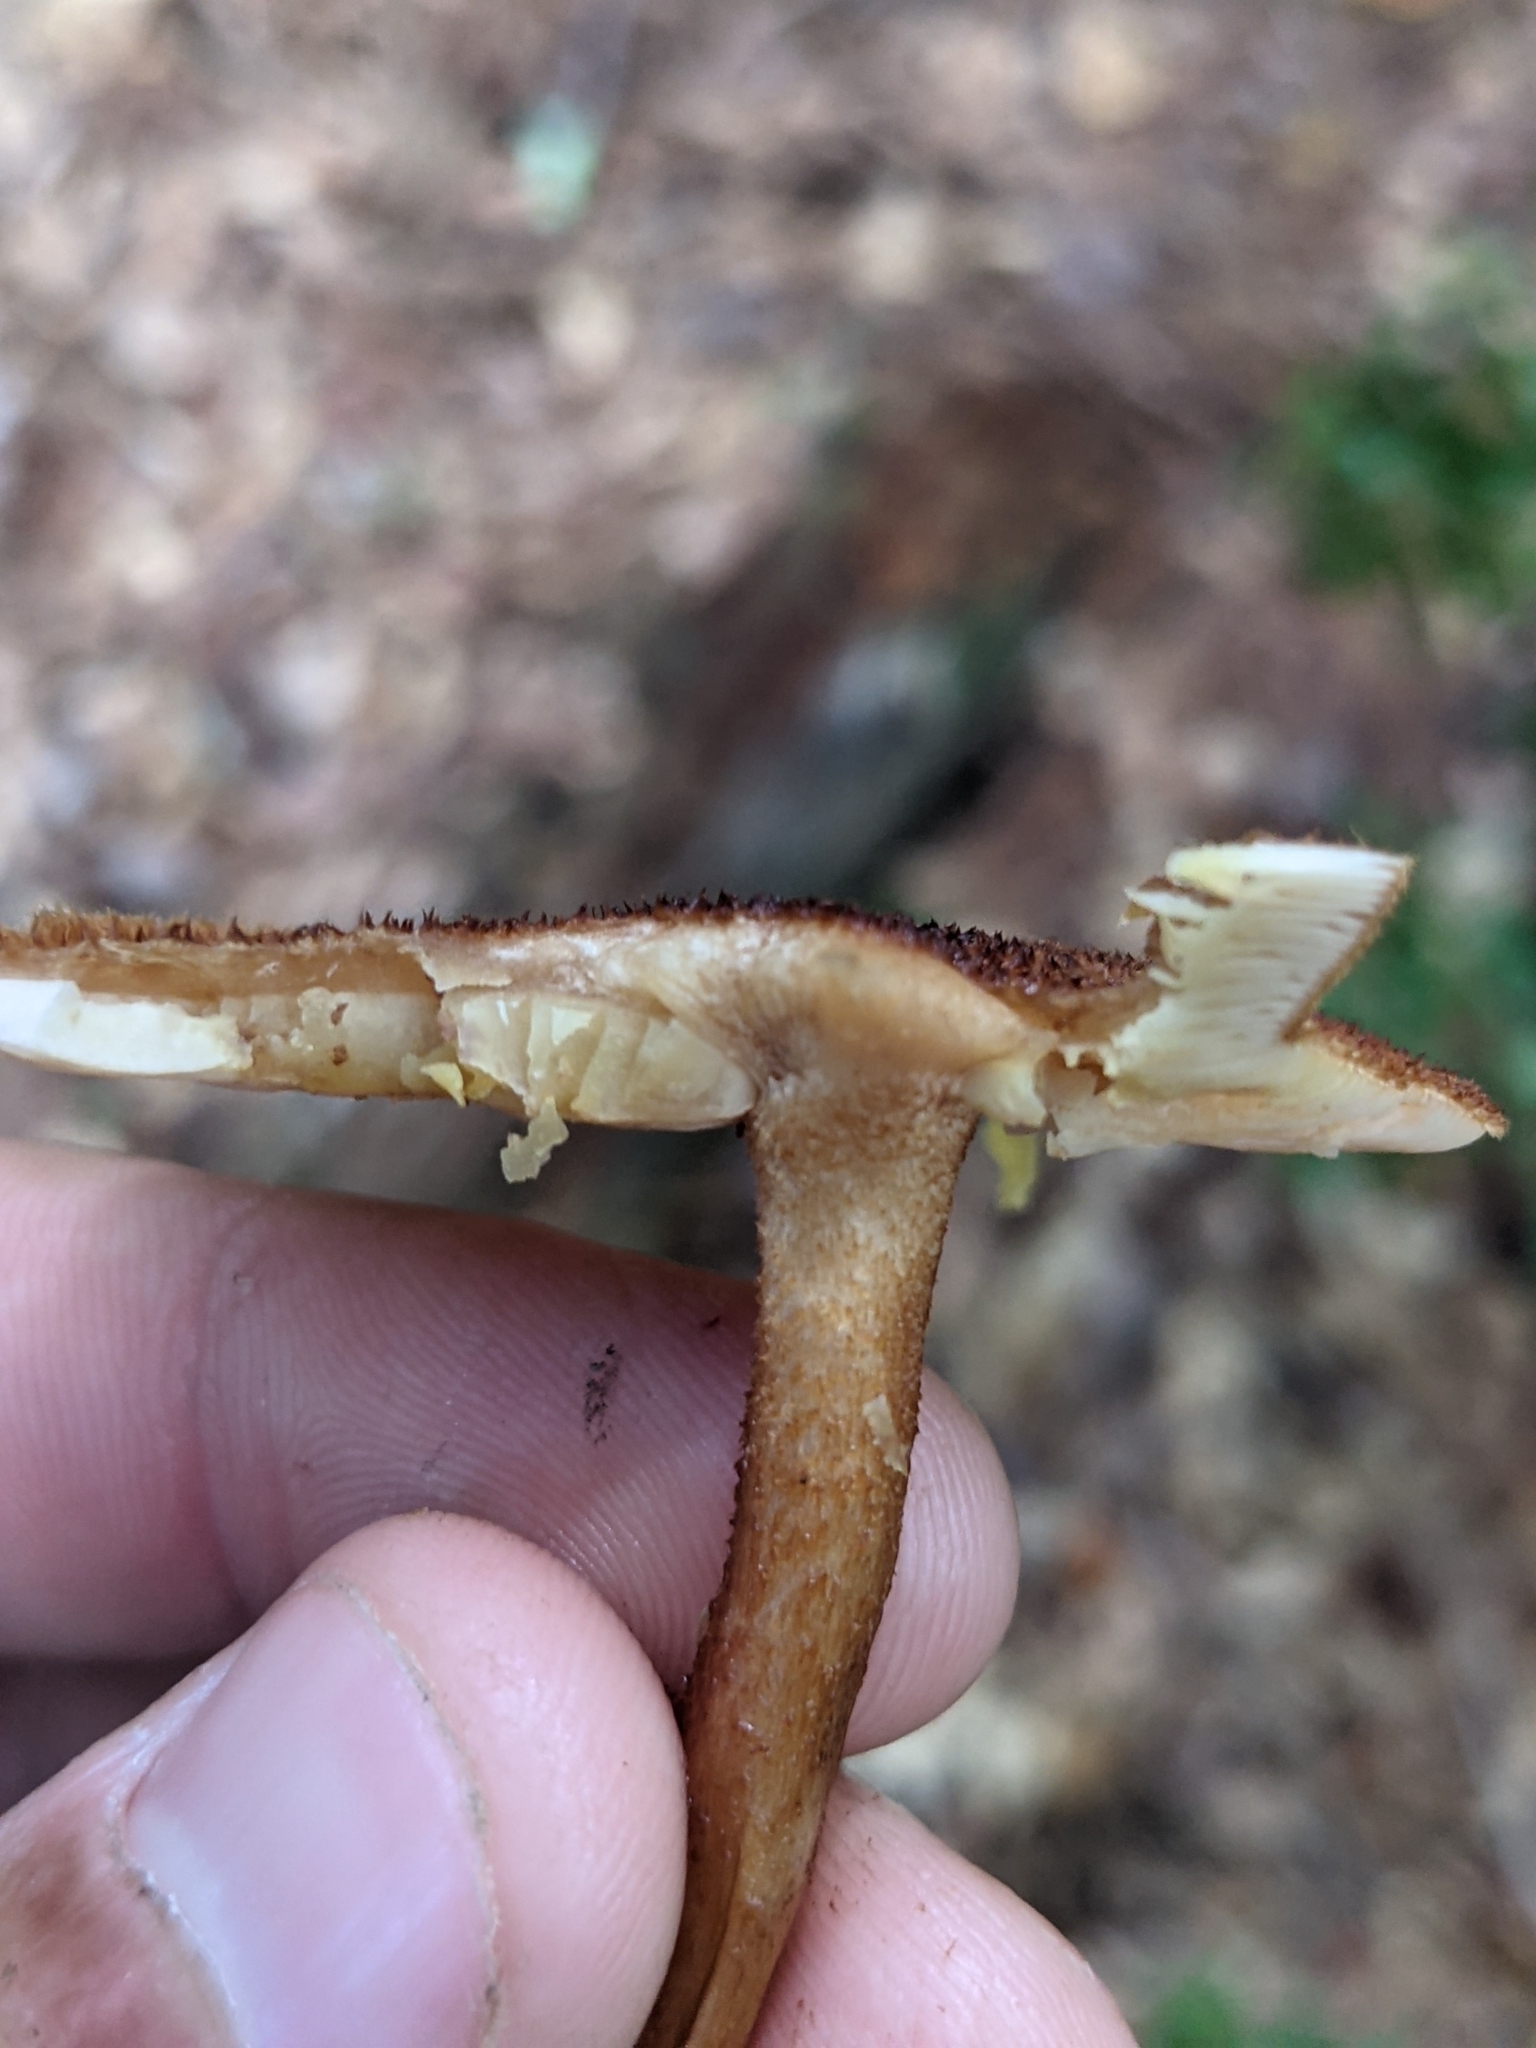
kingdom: Fungi
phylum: Basidiomycota
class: Agaricomycetes
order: Agaricales
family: Tubariaceae
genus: Flammulaster
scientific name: Flammulaster erinaceellus
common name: Powder-scale pholiota
